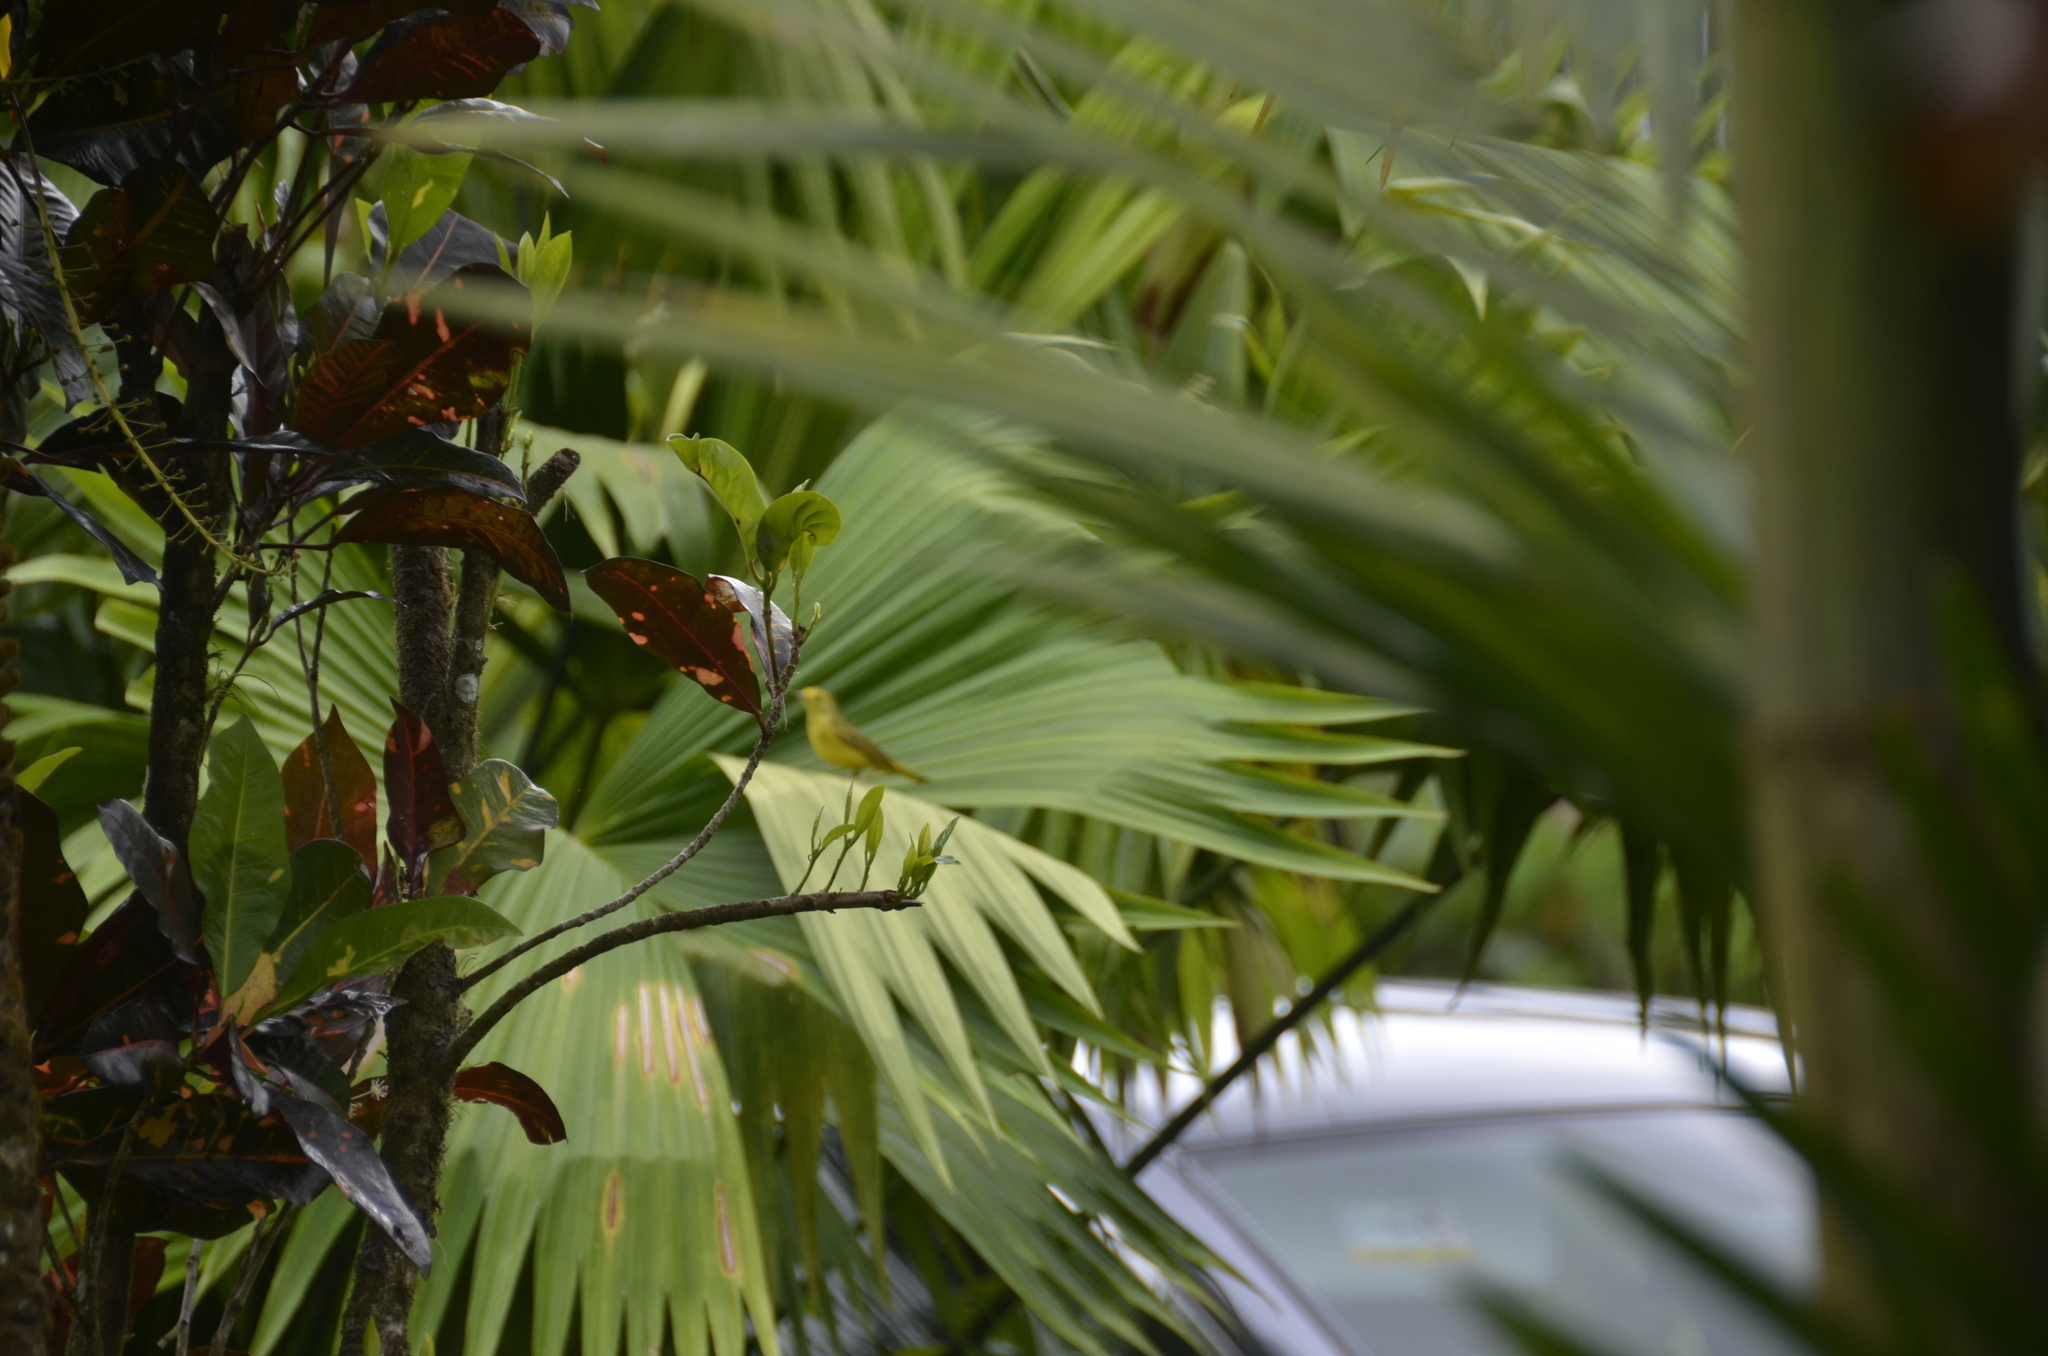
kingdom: Animalia
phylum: Chordata
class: Aves
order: Passeriformes
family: Parulidae
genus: Setophaga
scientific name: Setophaga petechia
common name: Yellow warbler
